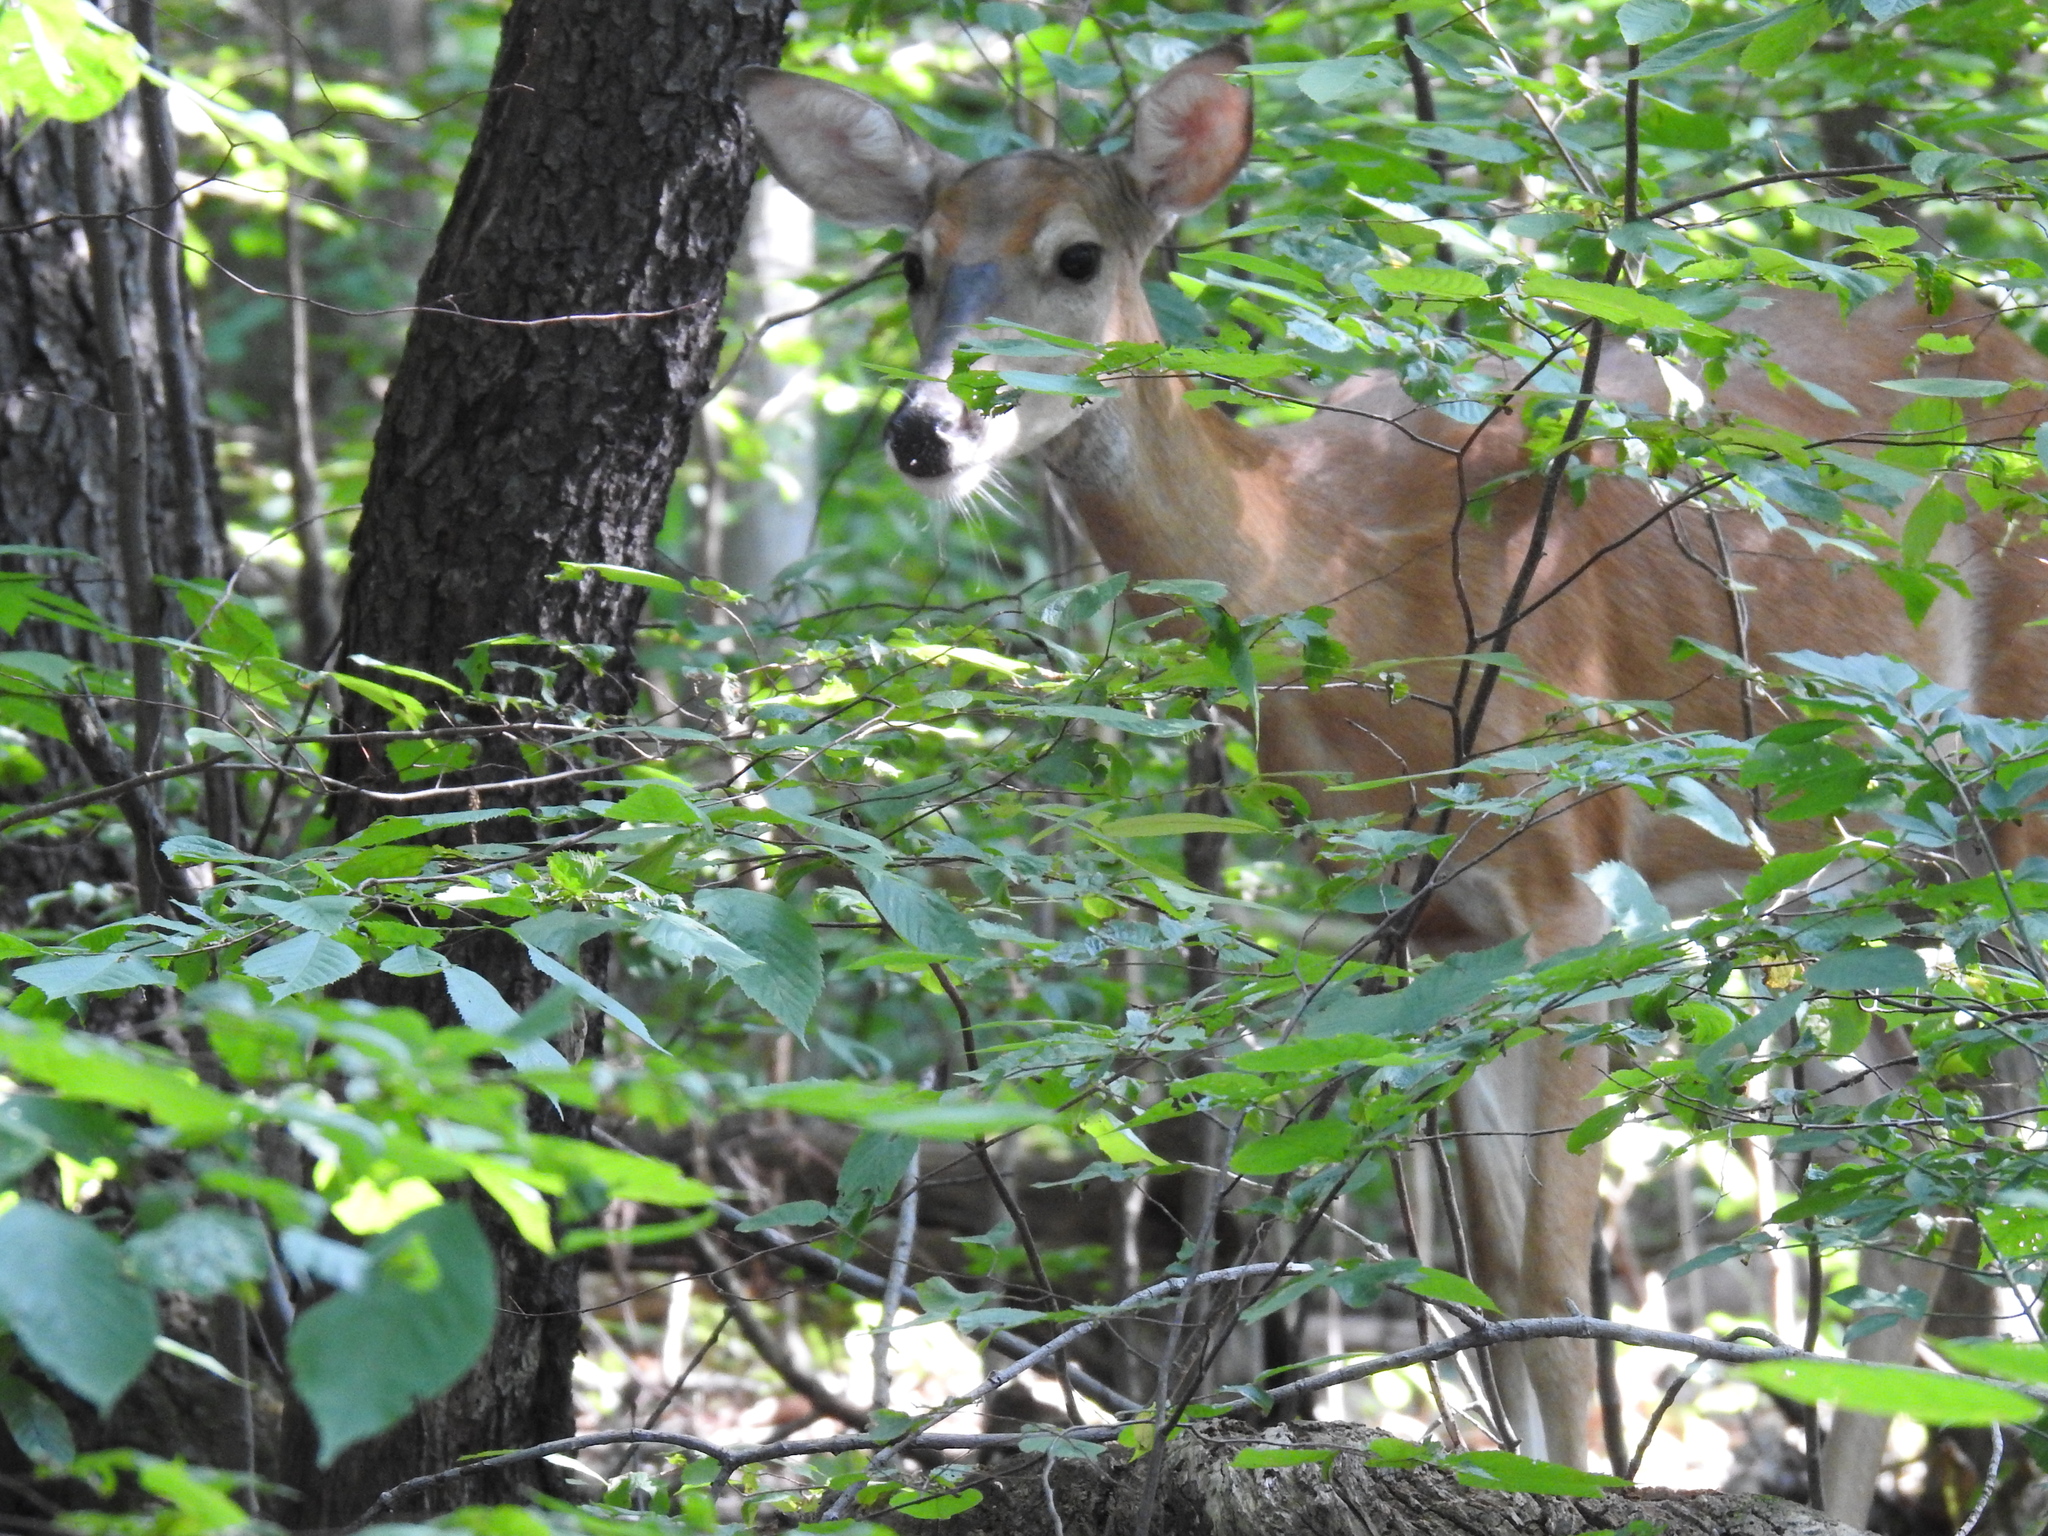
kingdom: Animalia
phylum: Chordata
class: Mammalia
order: Artiodactyla
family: Cervidae
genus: Odocoileus
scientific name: Odocoileus virginianus
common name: White-tailed deer
